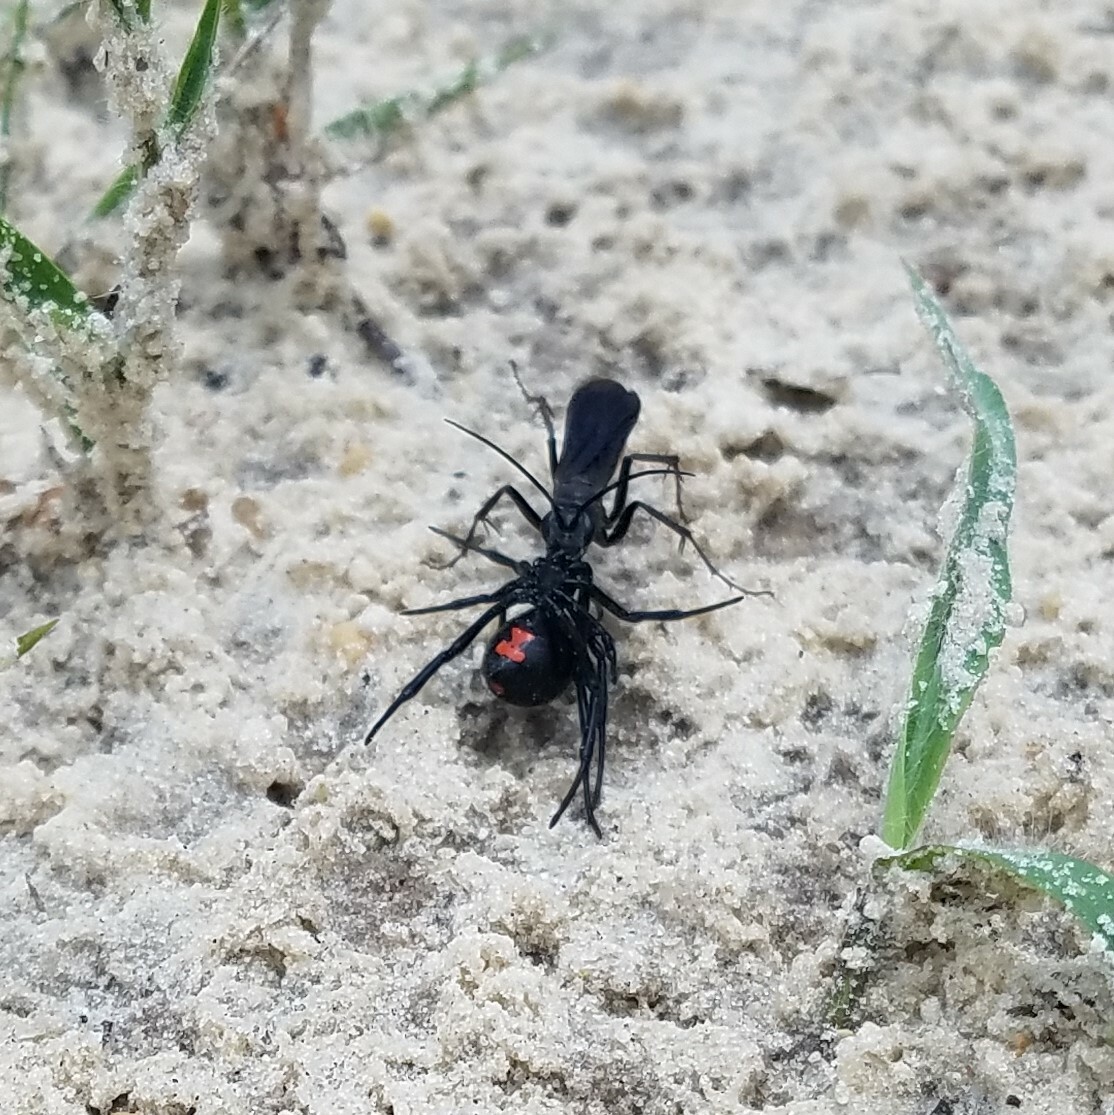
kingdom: Animalia
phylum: Arthropoda
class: Arachnida
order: Araneae
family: Theridiidae
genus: Latrodectus
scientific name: Latrodectus mactans
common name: Cobweb spiders
